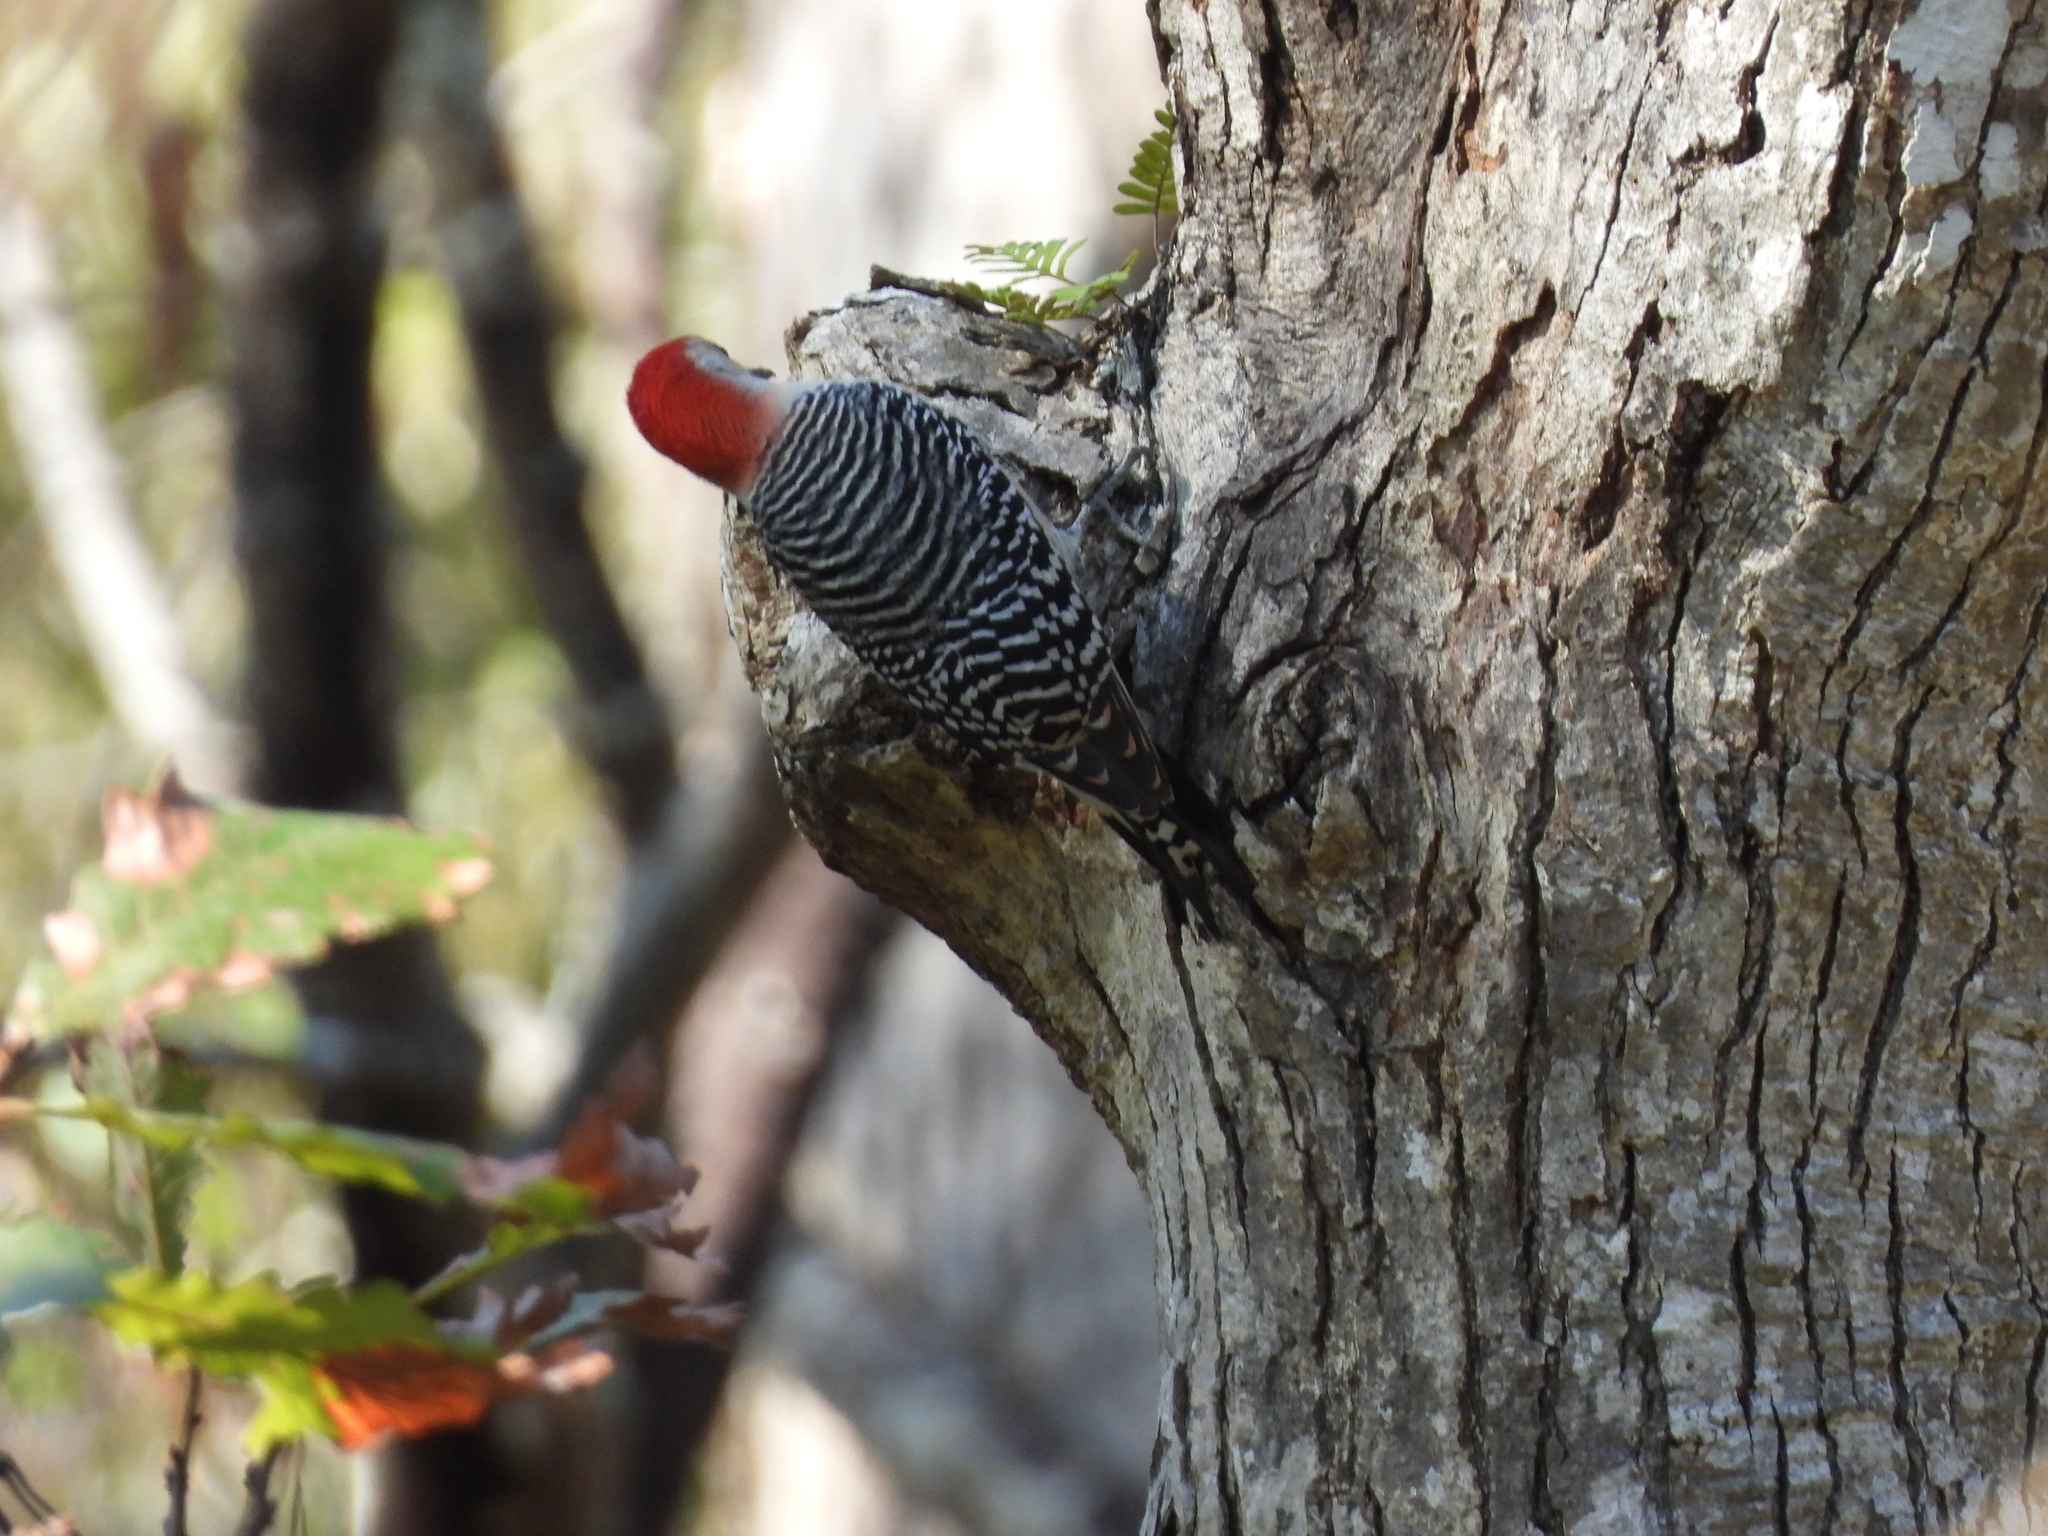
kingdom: Animalia
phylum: Chordata
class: Aves
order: Piciformes
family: Picidae
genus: Melanerpes
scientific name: Melanerpes carolinus
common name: Red-bellied woodpecker
